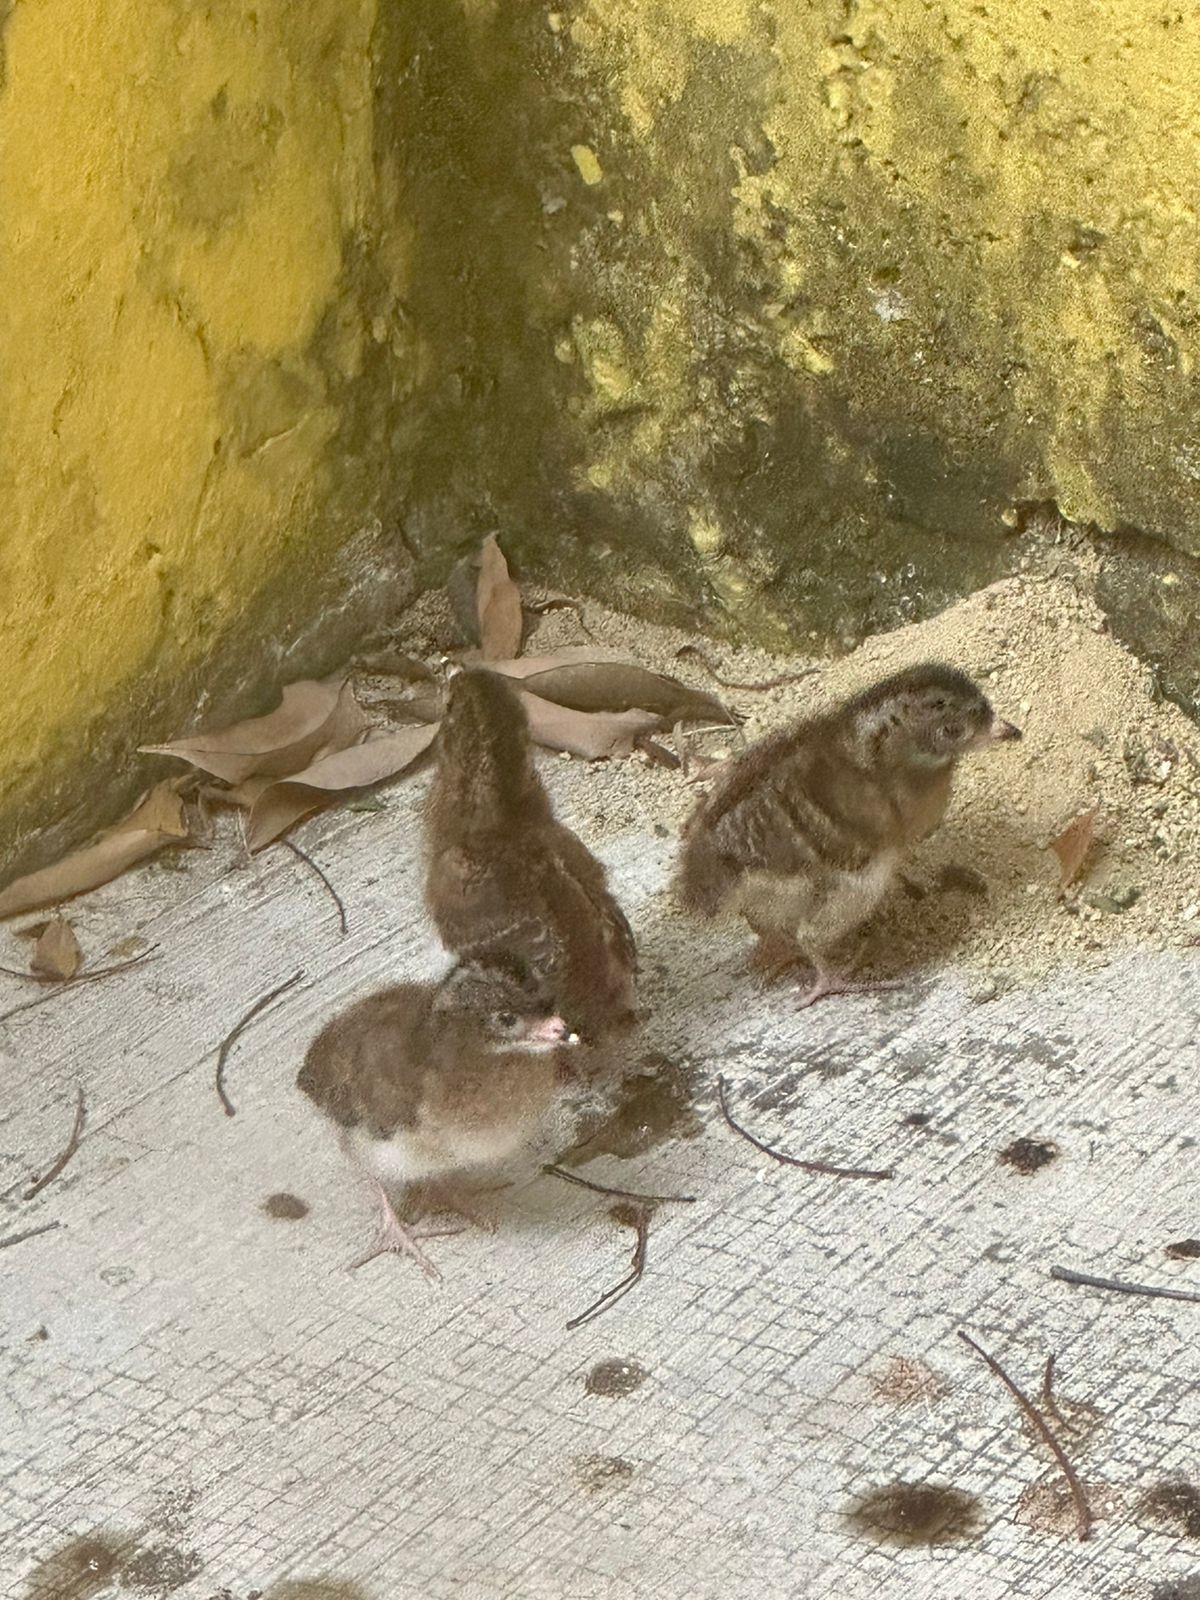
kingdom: Animalia
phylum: Chordata
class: Aves
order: Galliformes
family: Cracidae
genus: Ortalis
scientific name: Ortalis vetula
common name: Plain chachalaca
